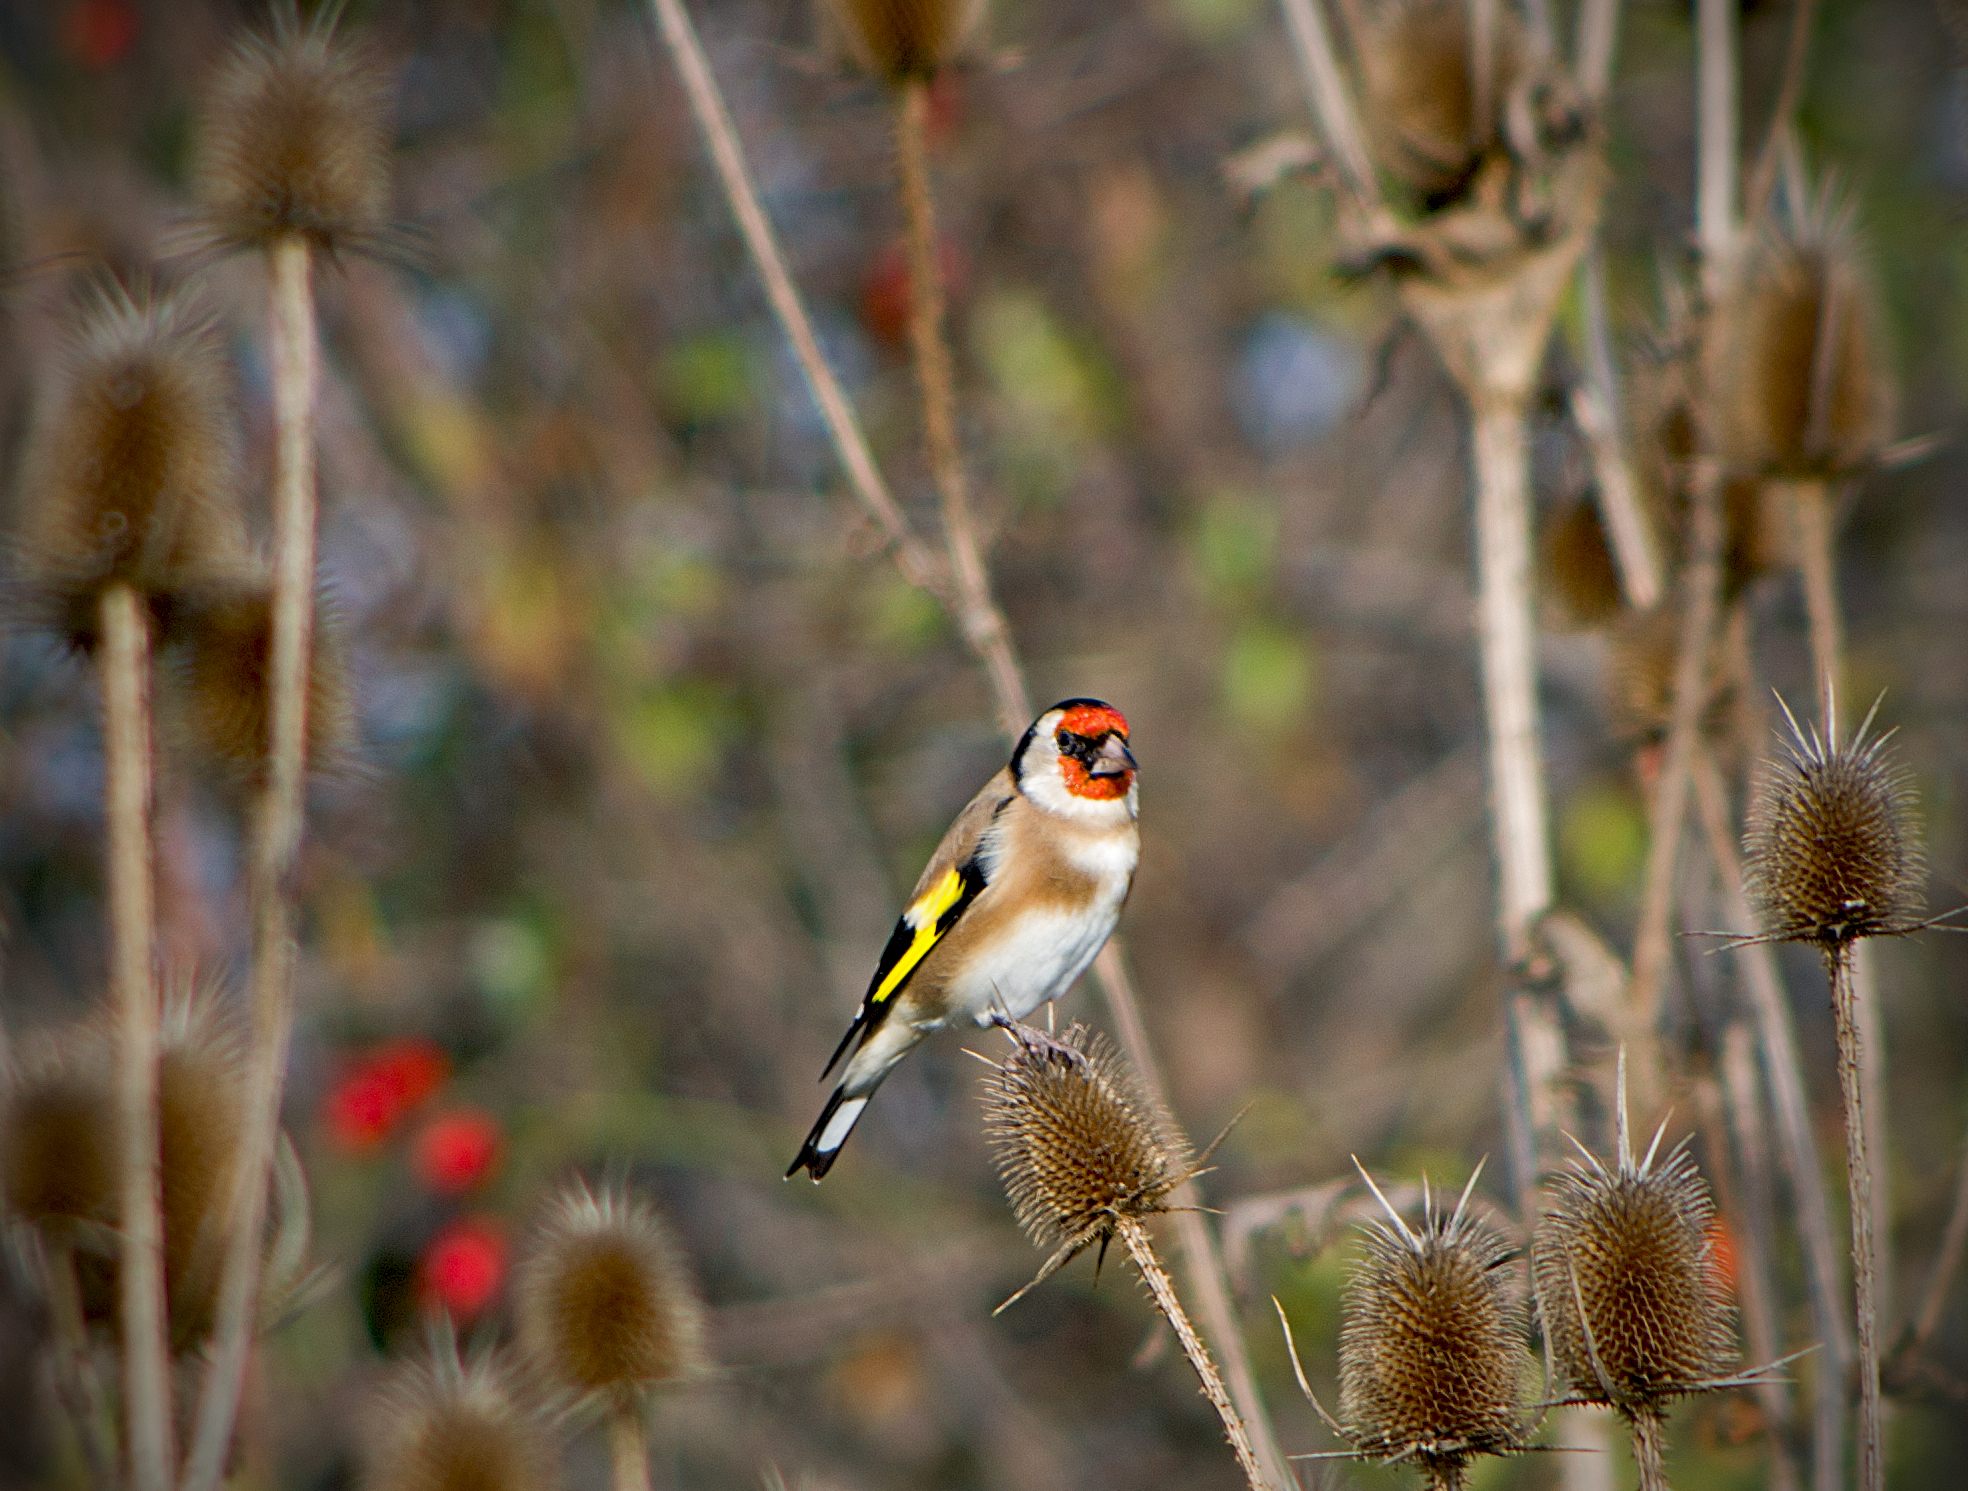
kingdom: Animalia
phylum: Chordata
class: Aves
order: Passeriformes
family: Fringillidae
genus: Carduelis
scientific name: Carduelis carduelis
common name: European goldfinch
